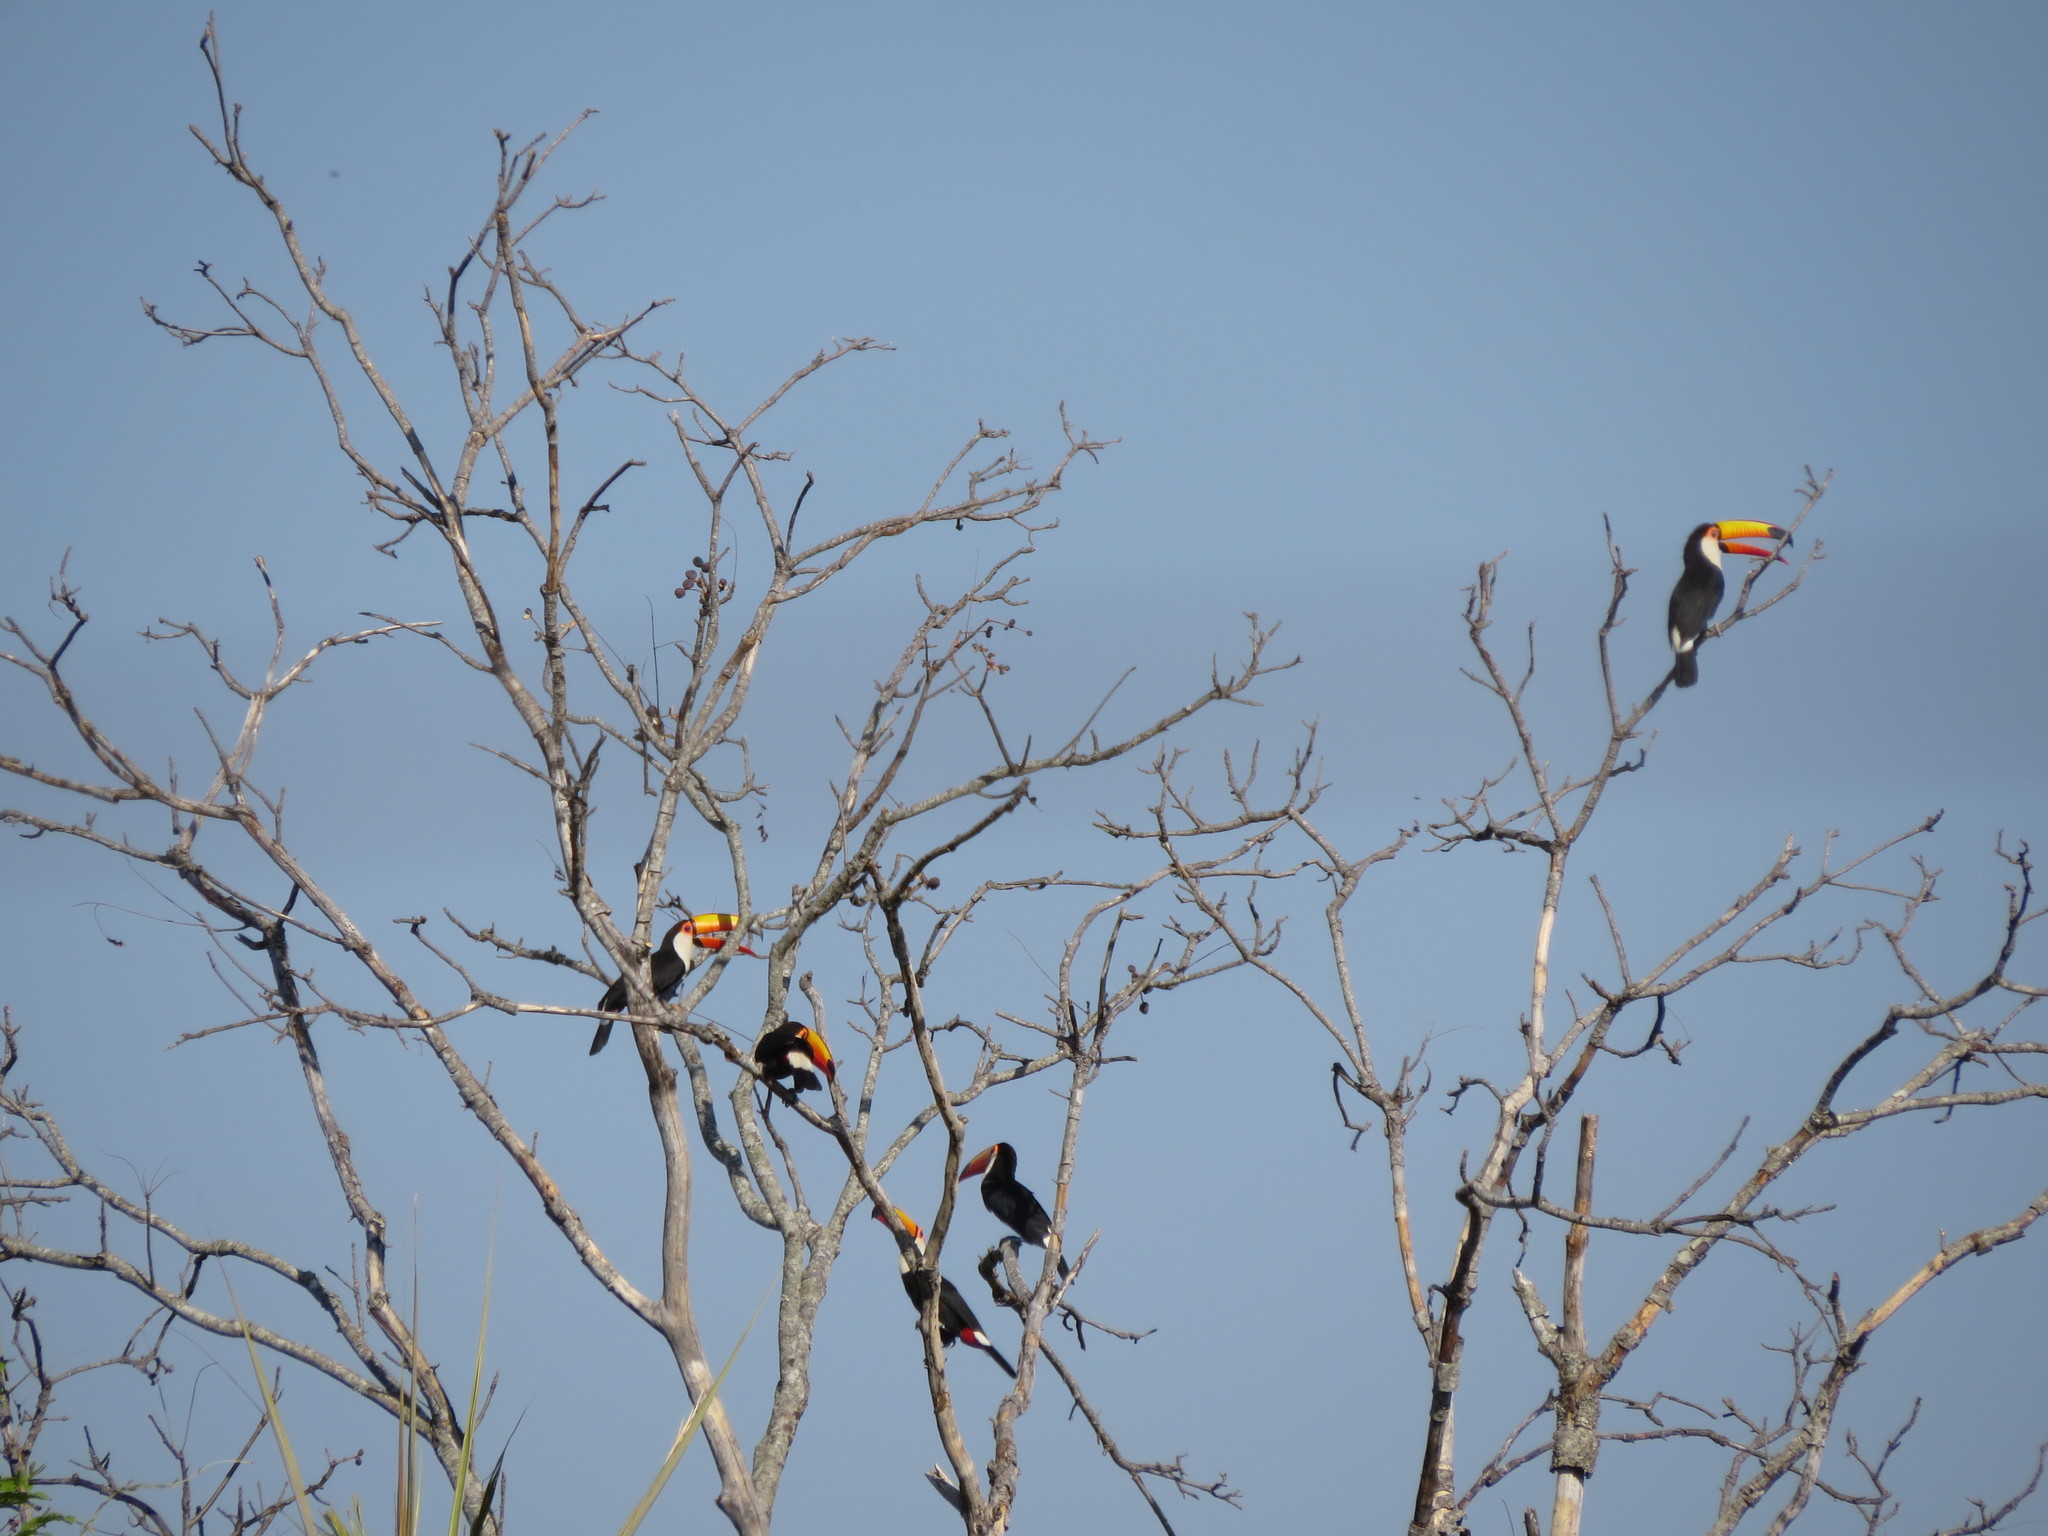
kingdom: Animalia
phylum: Chordata
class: Aves
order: Piciformes
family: Ramphastidae
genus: Ramphastos
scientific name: Ramphastos toco
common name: Toco toucan
